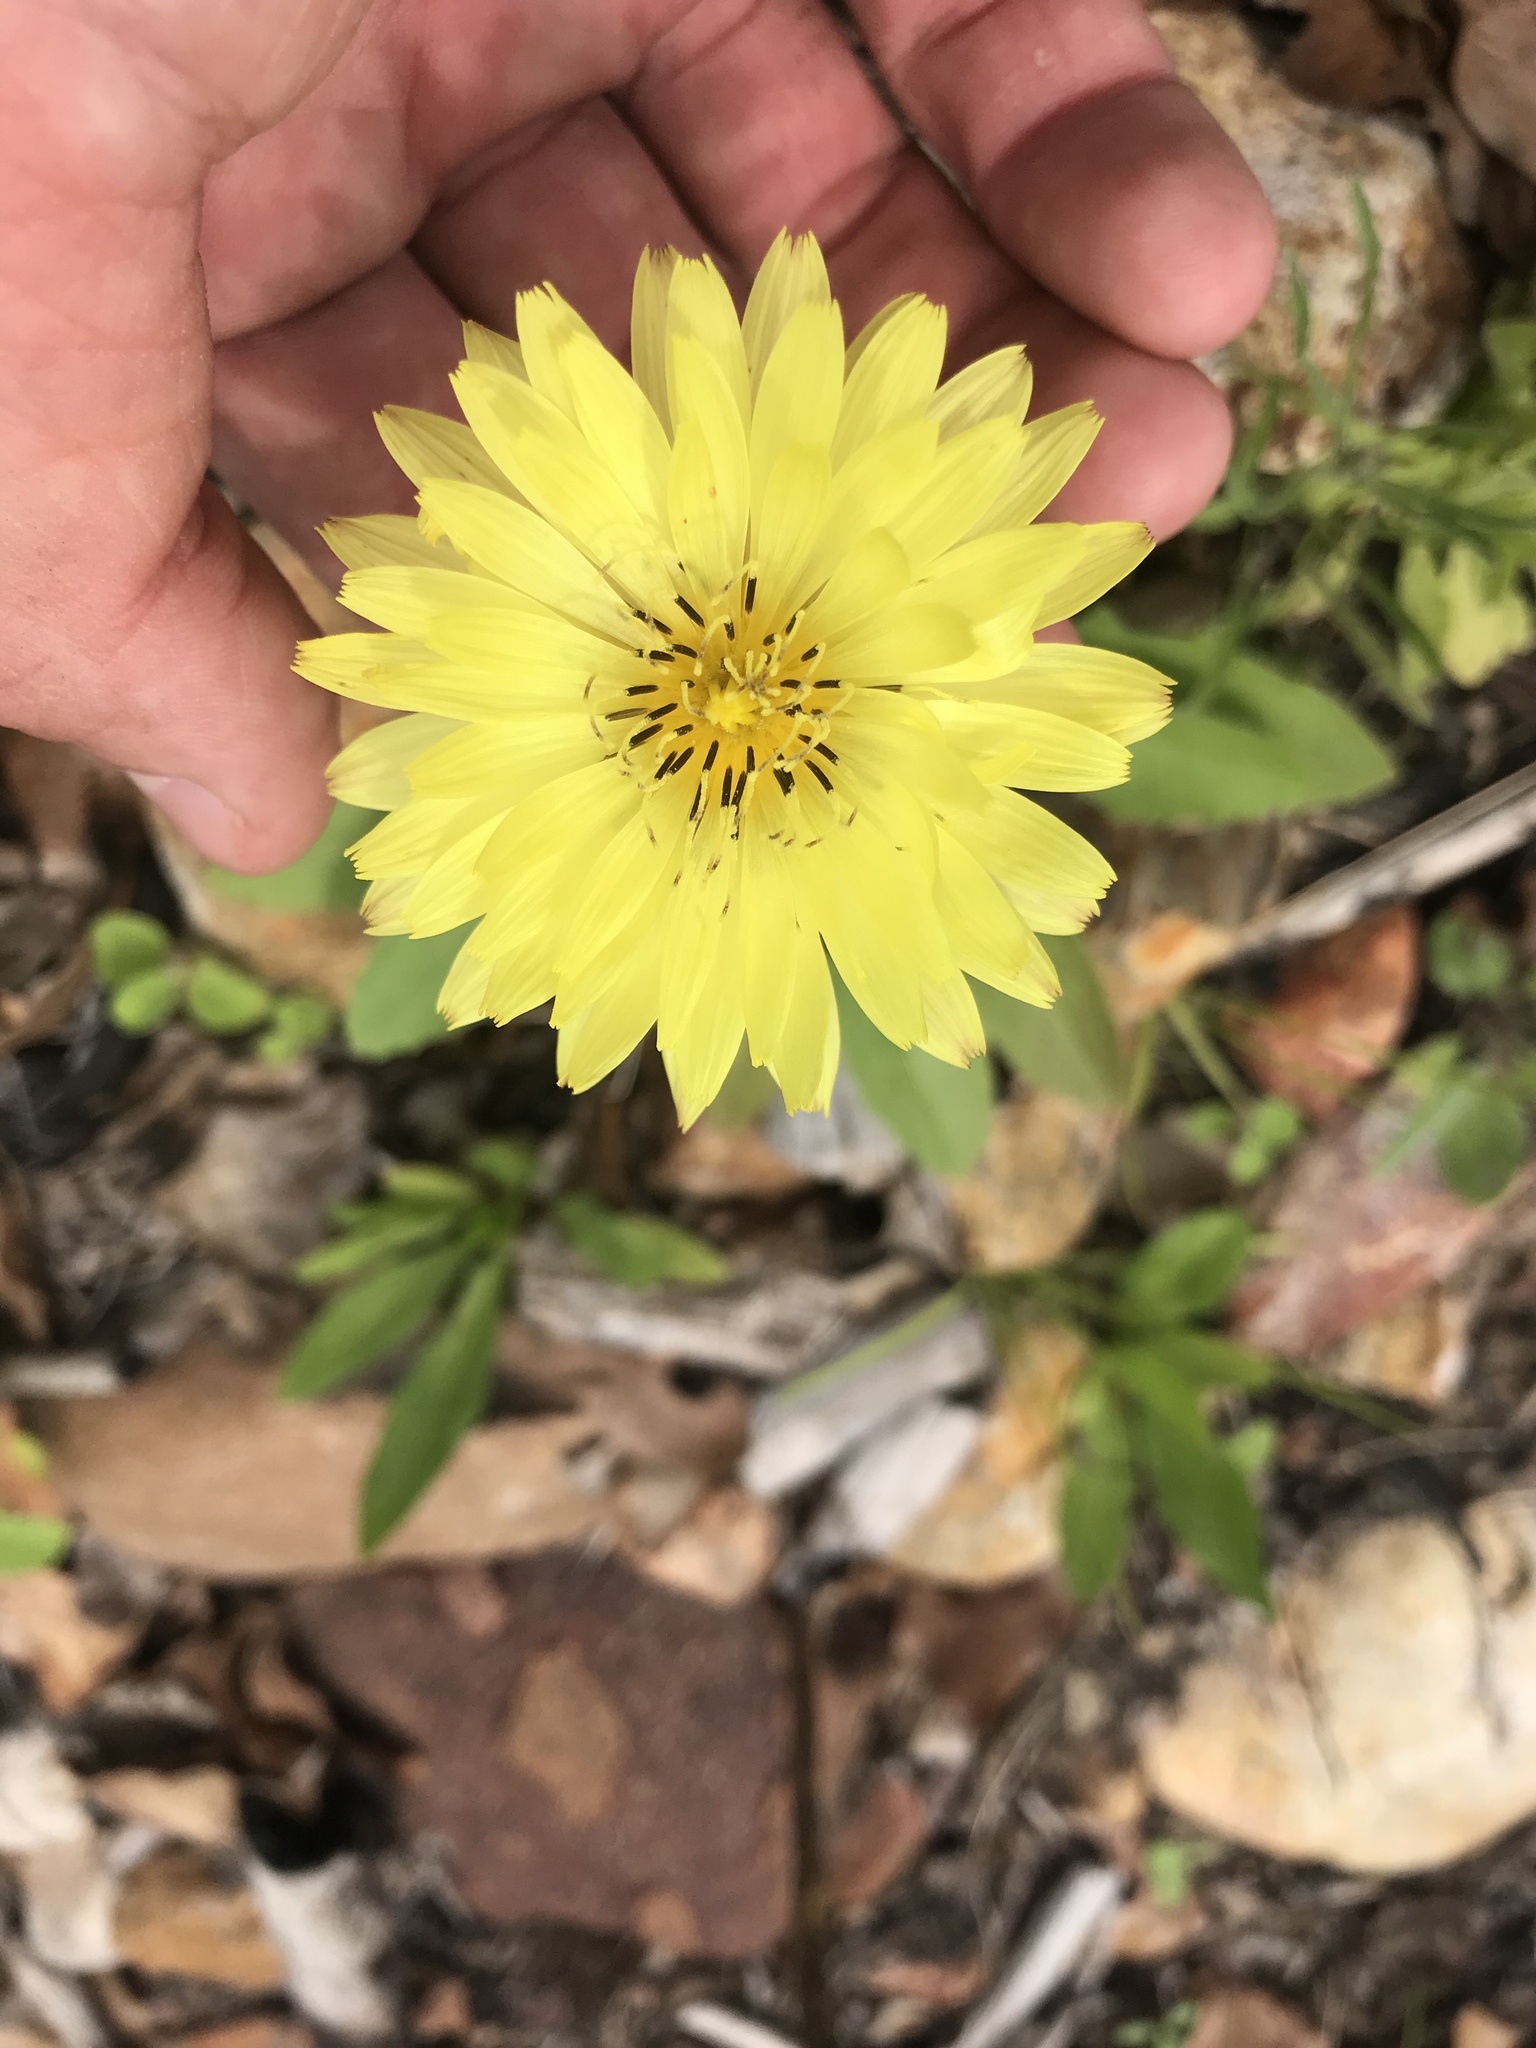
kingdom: Plantae
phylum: Tracheophyta
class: Magnoliopsida
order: Asterales
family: Asteraceae
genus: Pyrrhopappus
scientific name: Pyrrhopappus pauciflorus
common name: Texas false dandelion
